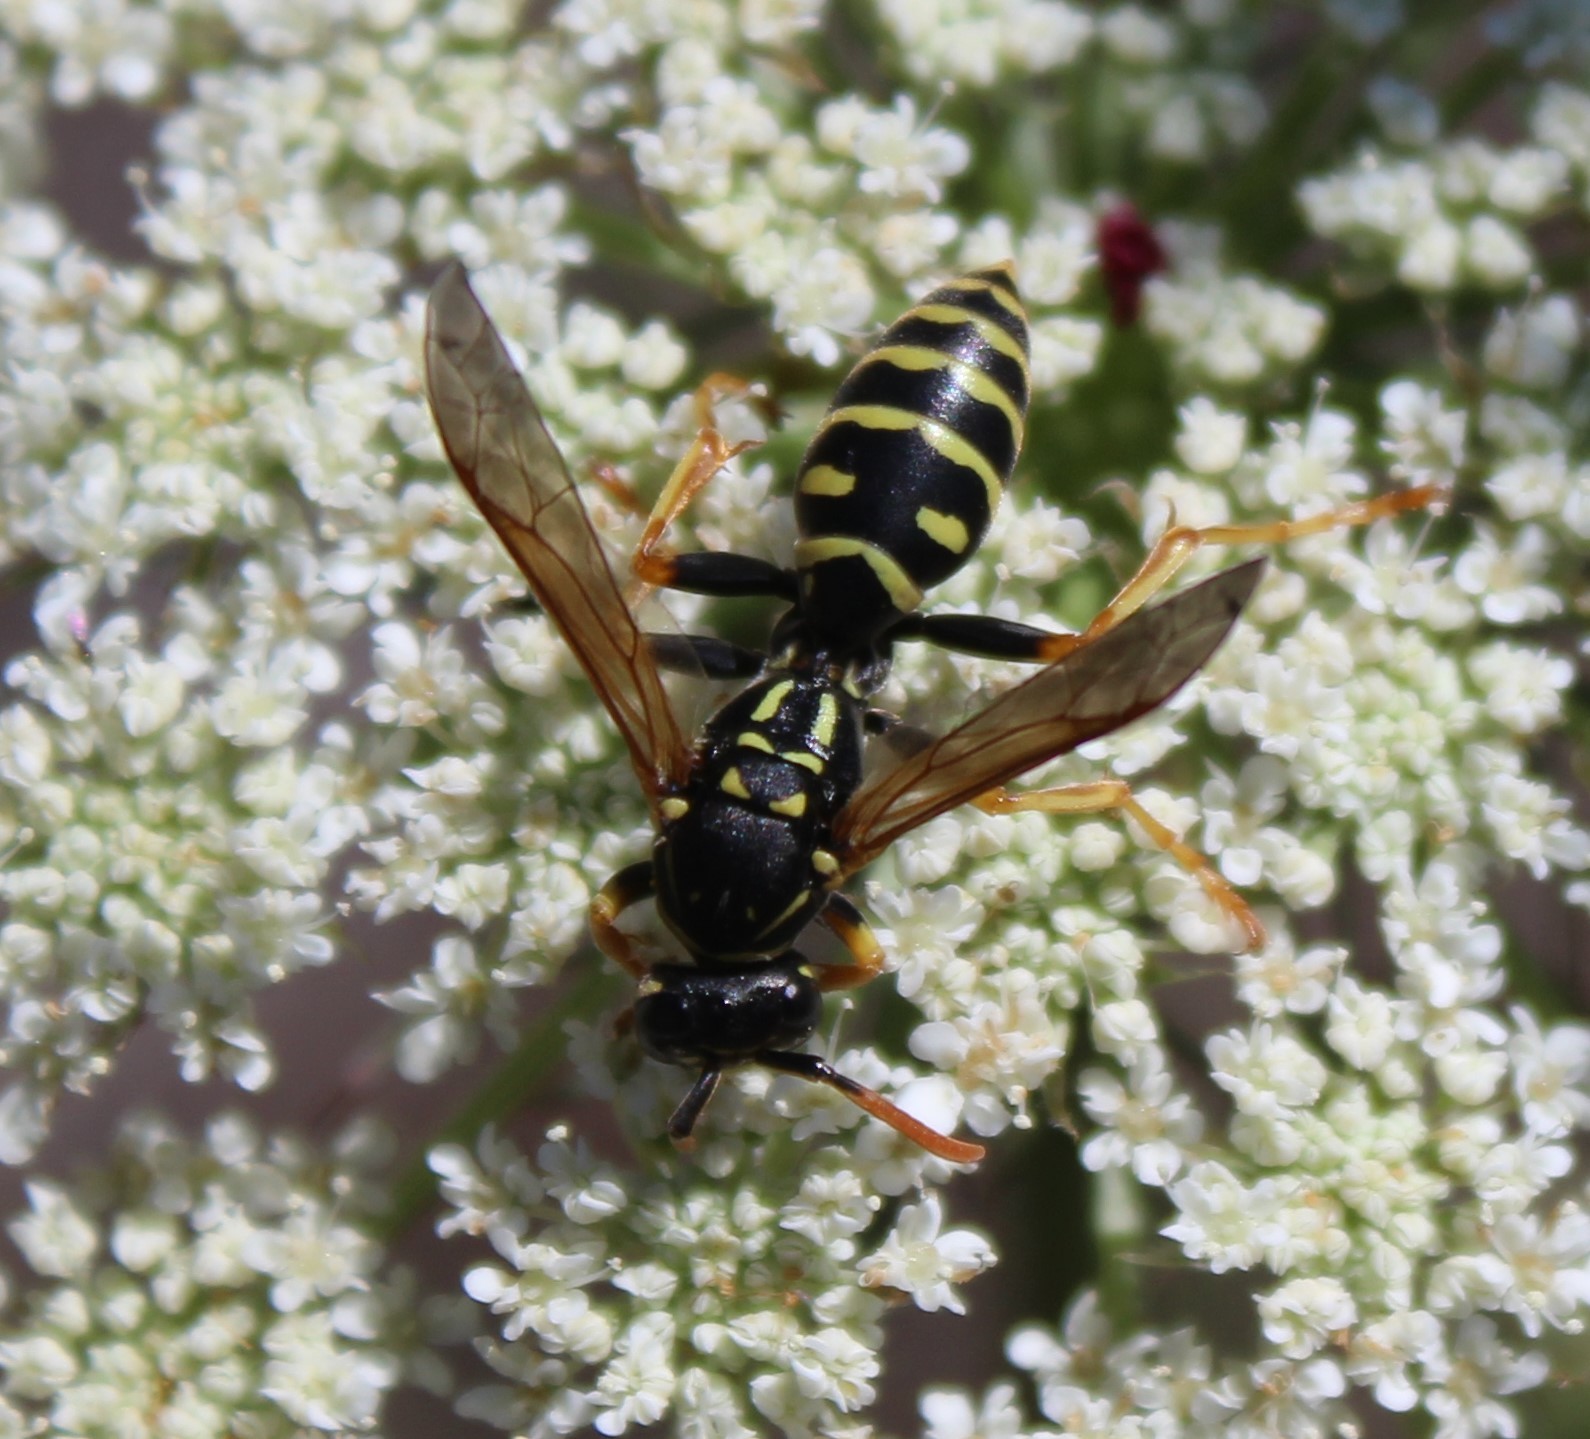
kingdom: Animalia
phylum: Arthropoda
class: Insecta
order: Hymenoptera
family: Eumenidae
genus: Polistes
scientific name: Polistes dominula
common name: Paper wasp
